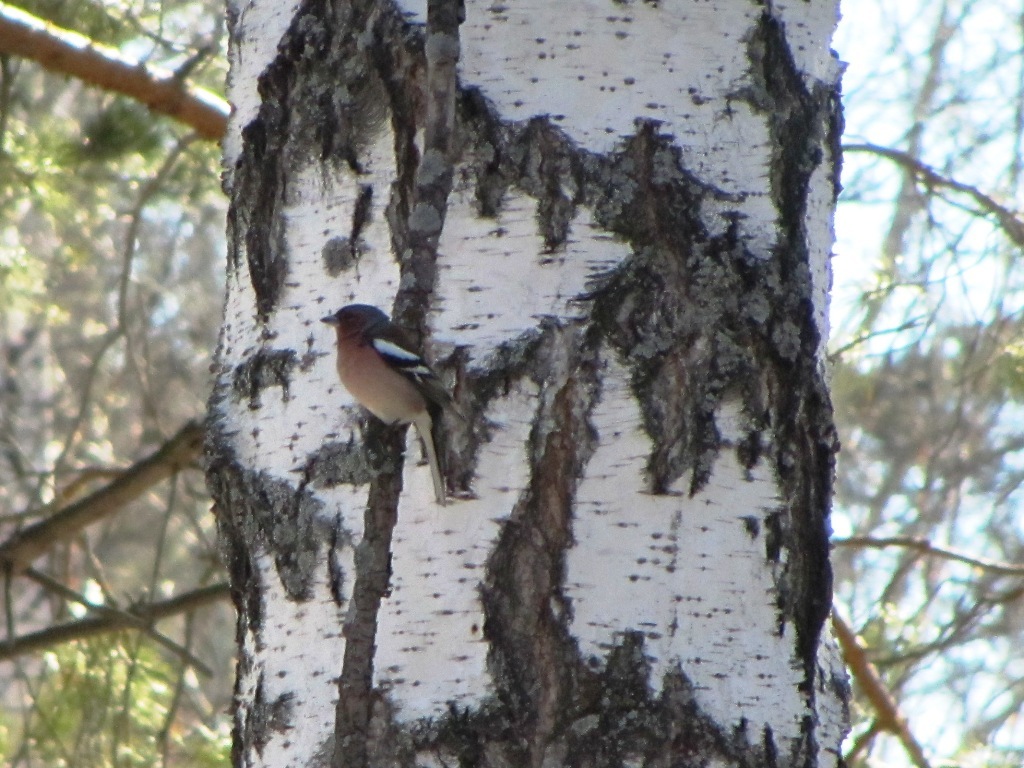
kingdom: Animalia
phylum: Chordata
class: Aves
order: Passeriformes
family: Fringillidae
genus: Fringilla
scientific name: Fringilla coelebs
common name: Common chaffinch
